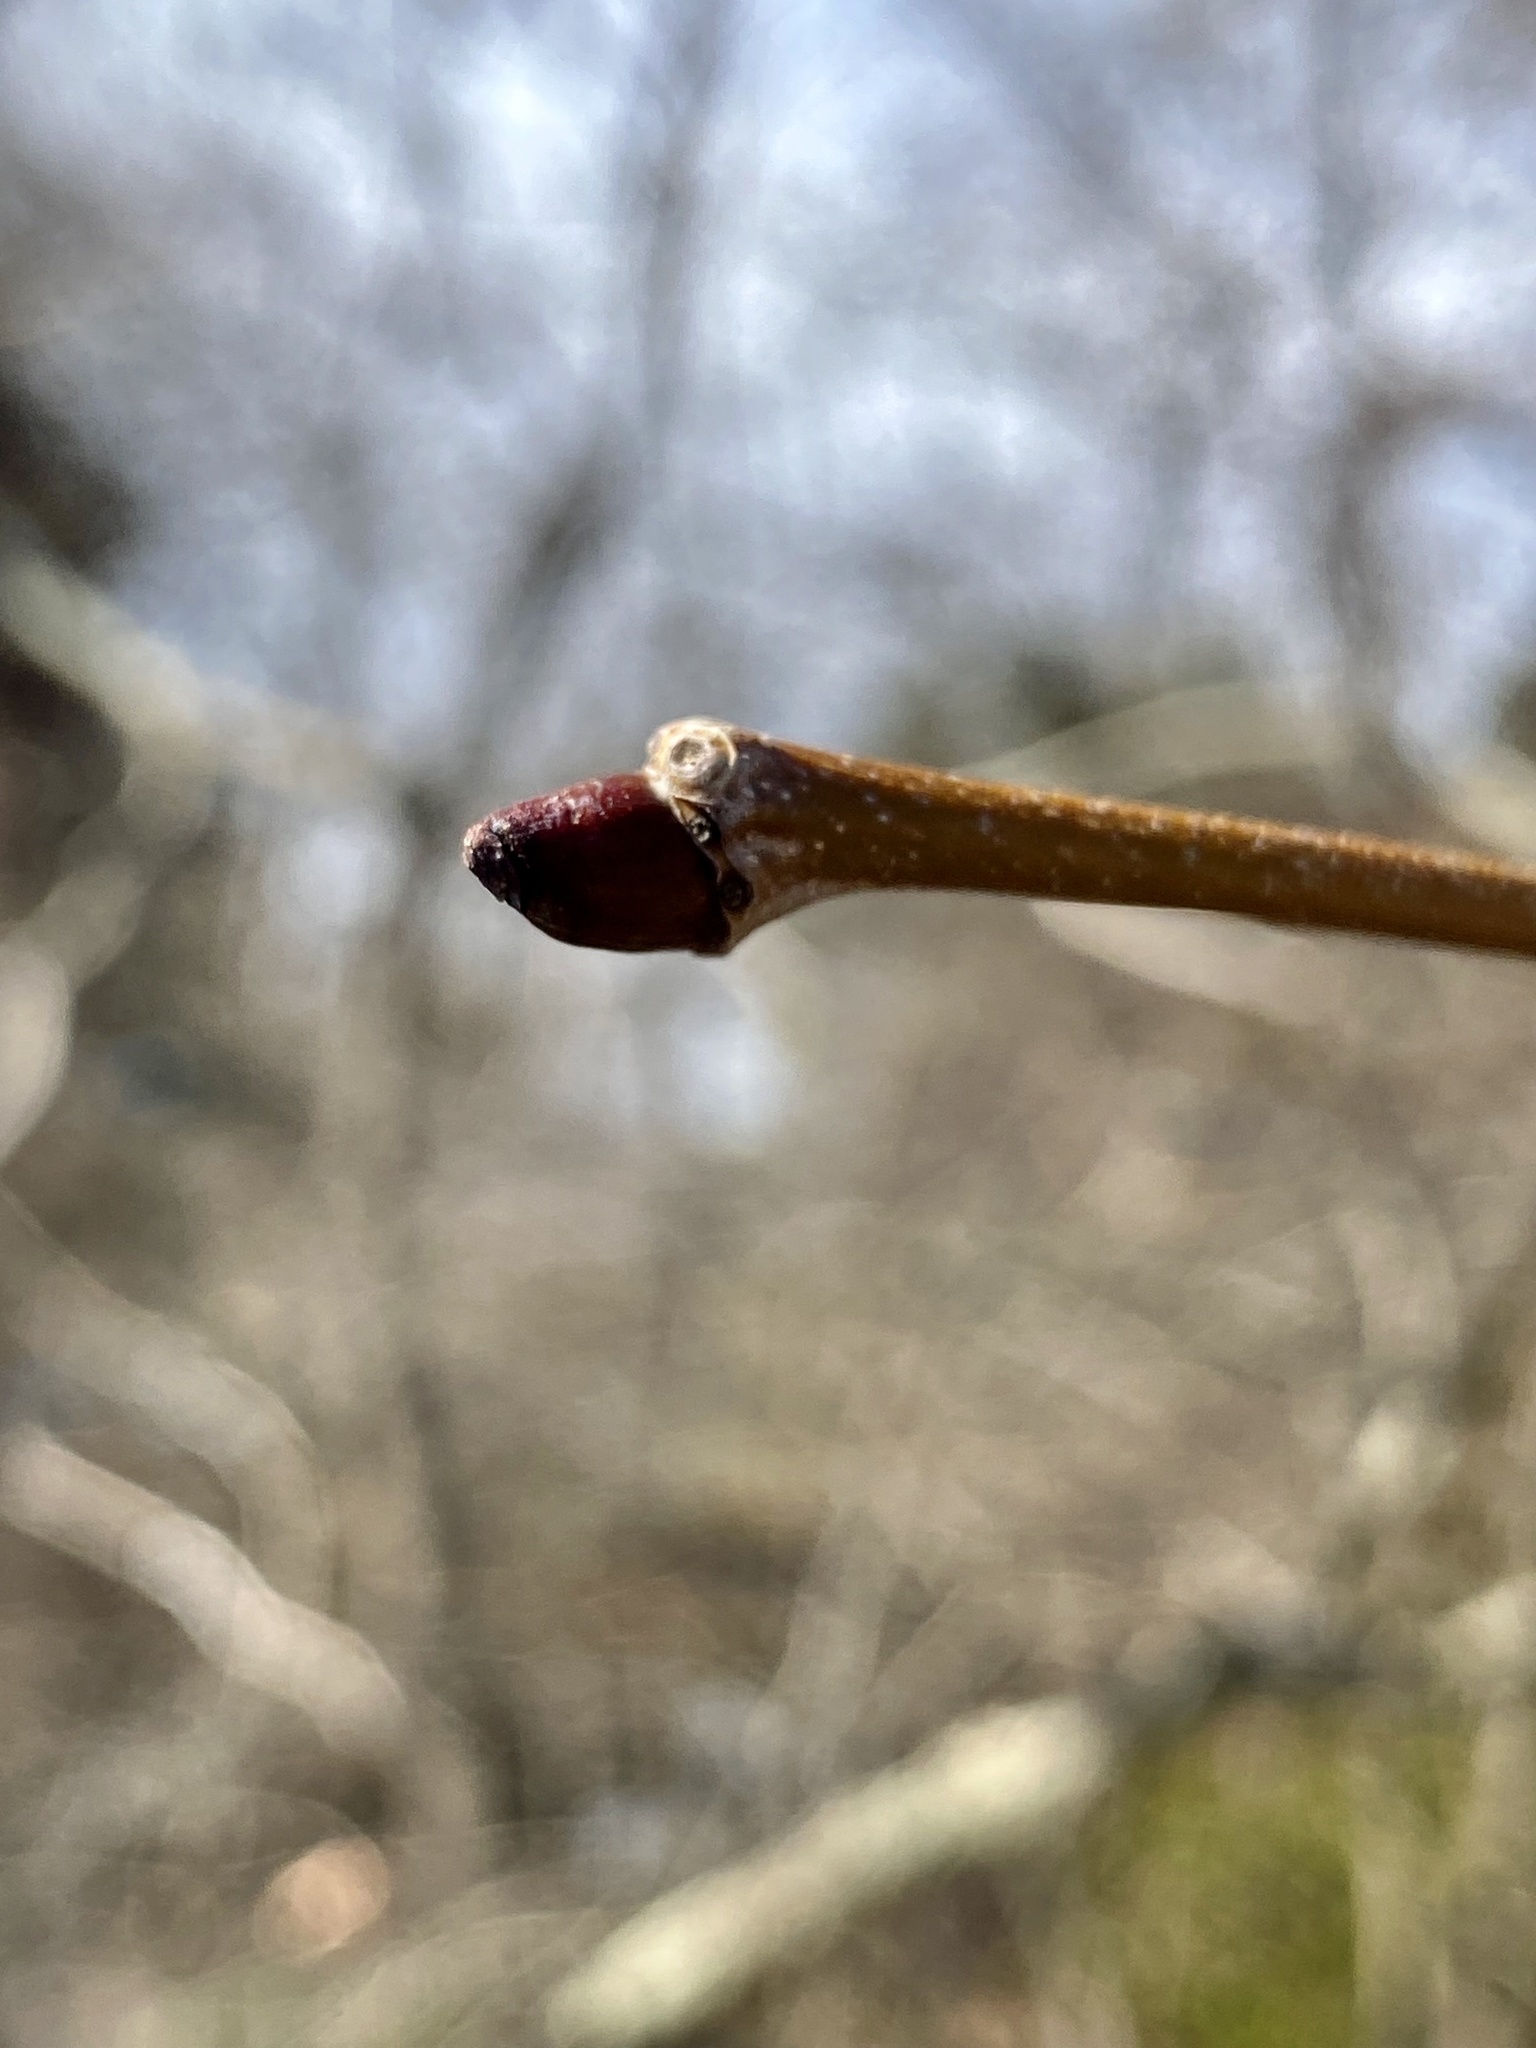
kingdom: Plantae
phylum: Tracheophyta
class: Magnoliopsida
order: Proteales
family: Platanaceae
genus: Platanus
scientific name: Platanus occidentalis
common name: American sycamore
